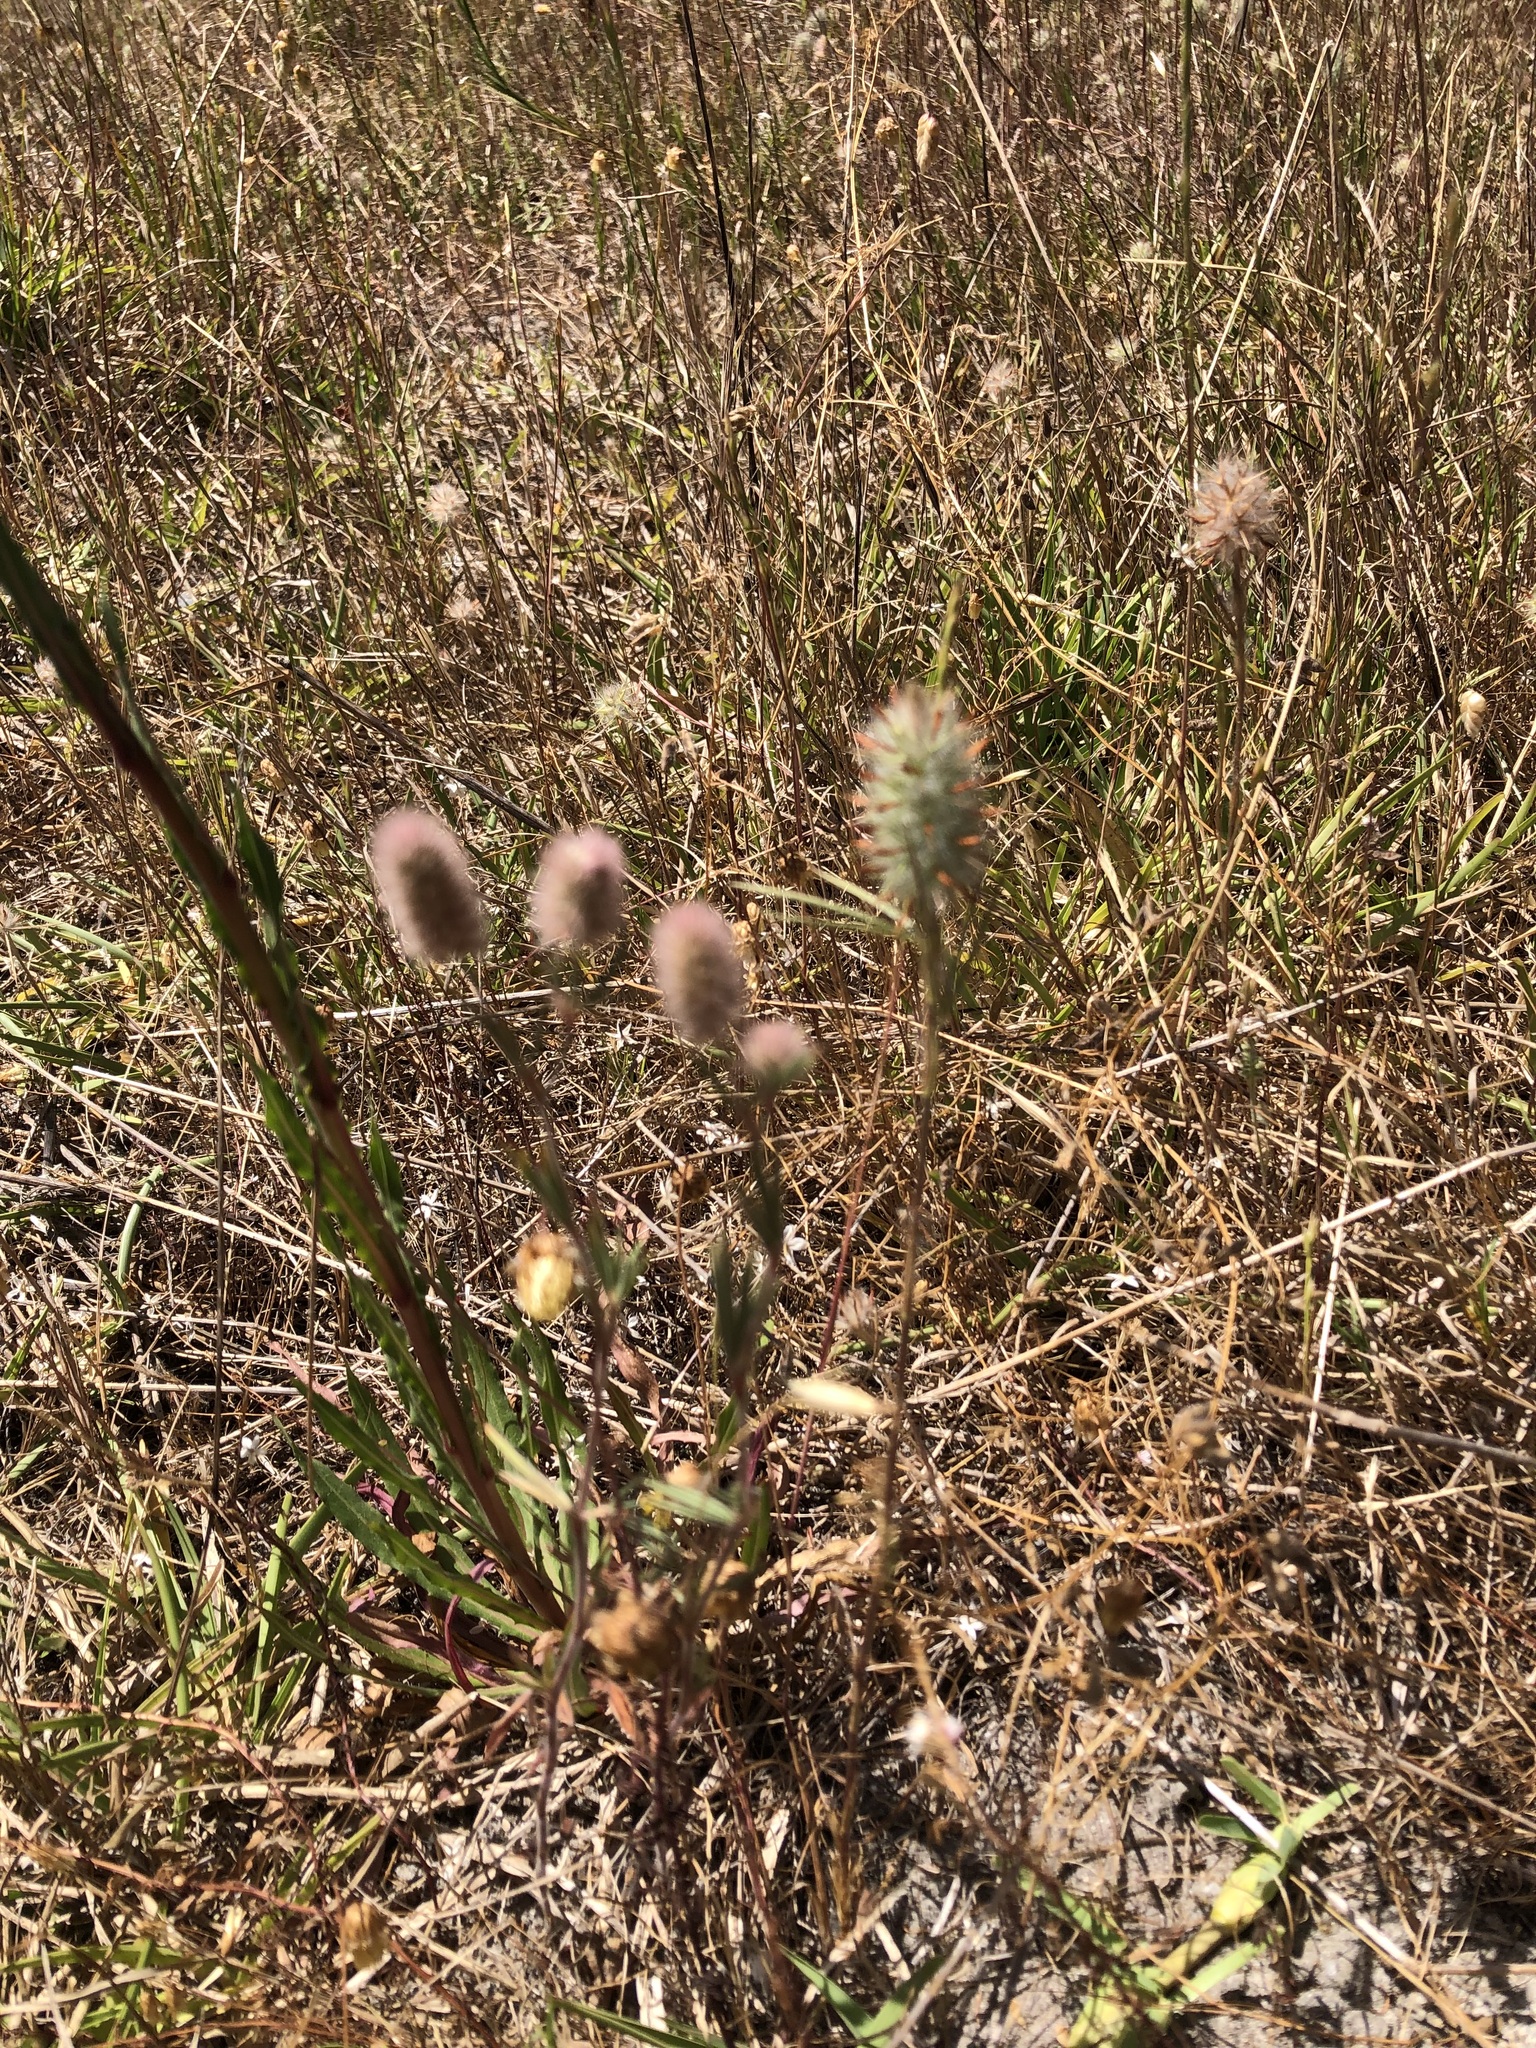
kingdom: Plantae
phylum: Tracheophyta
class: Magnoliopsida
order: Fabales
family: Fabaceae
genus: Trifolium
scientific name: Trifolium angustifolium
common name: Narrow clover
